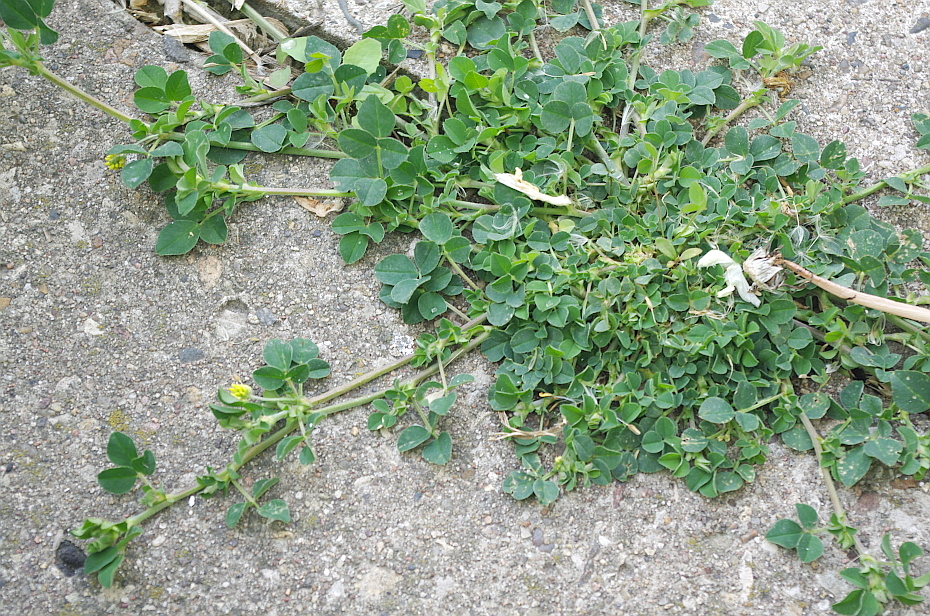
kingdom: Plantae
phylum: Tracheophyta
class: Magnoliopsida
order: Fabales
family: Fabaceae
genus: Medicago
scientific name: Medicago lupulina
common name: Black medick
